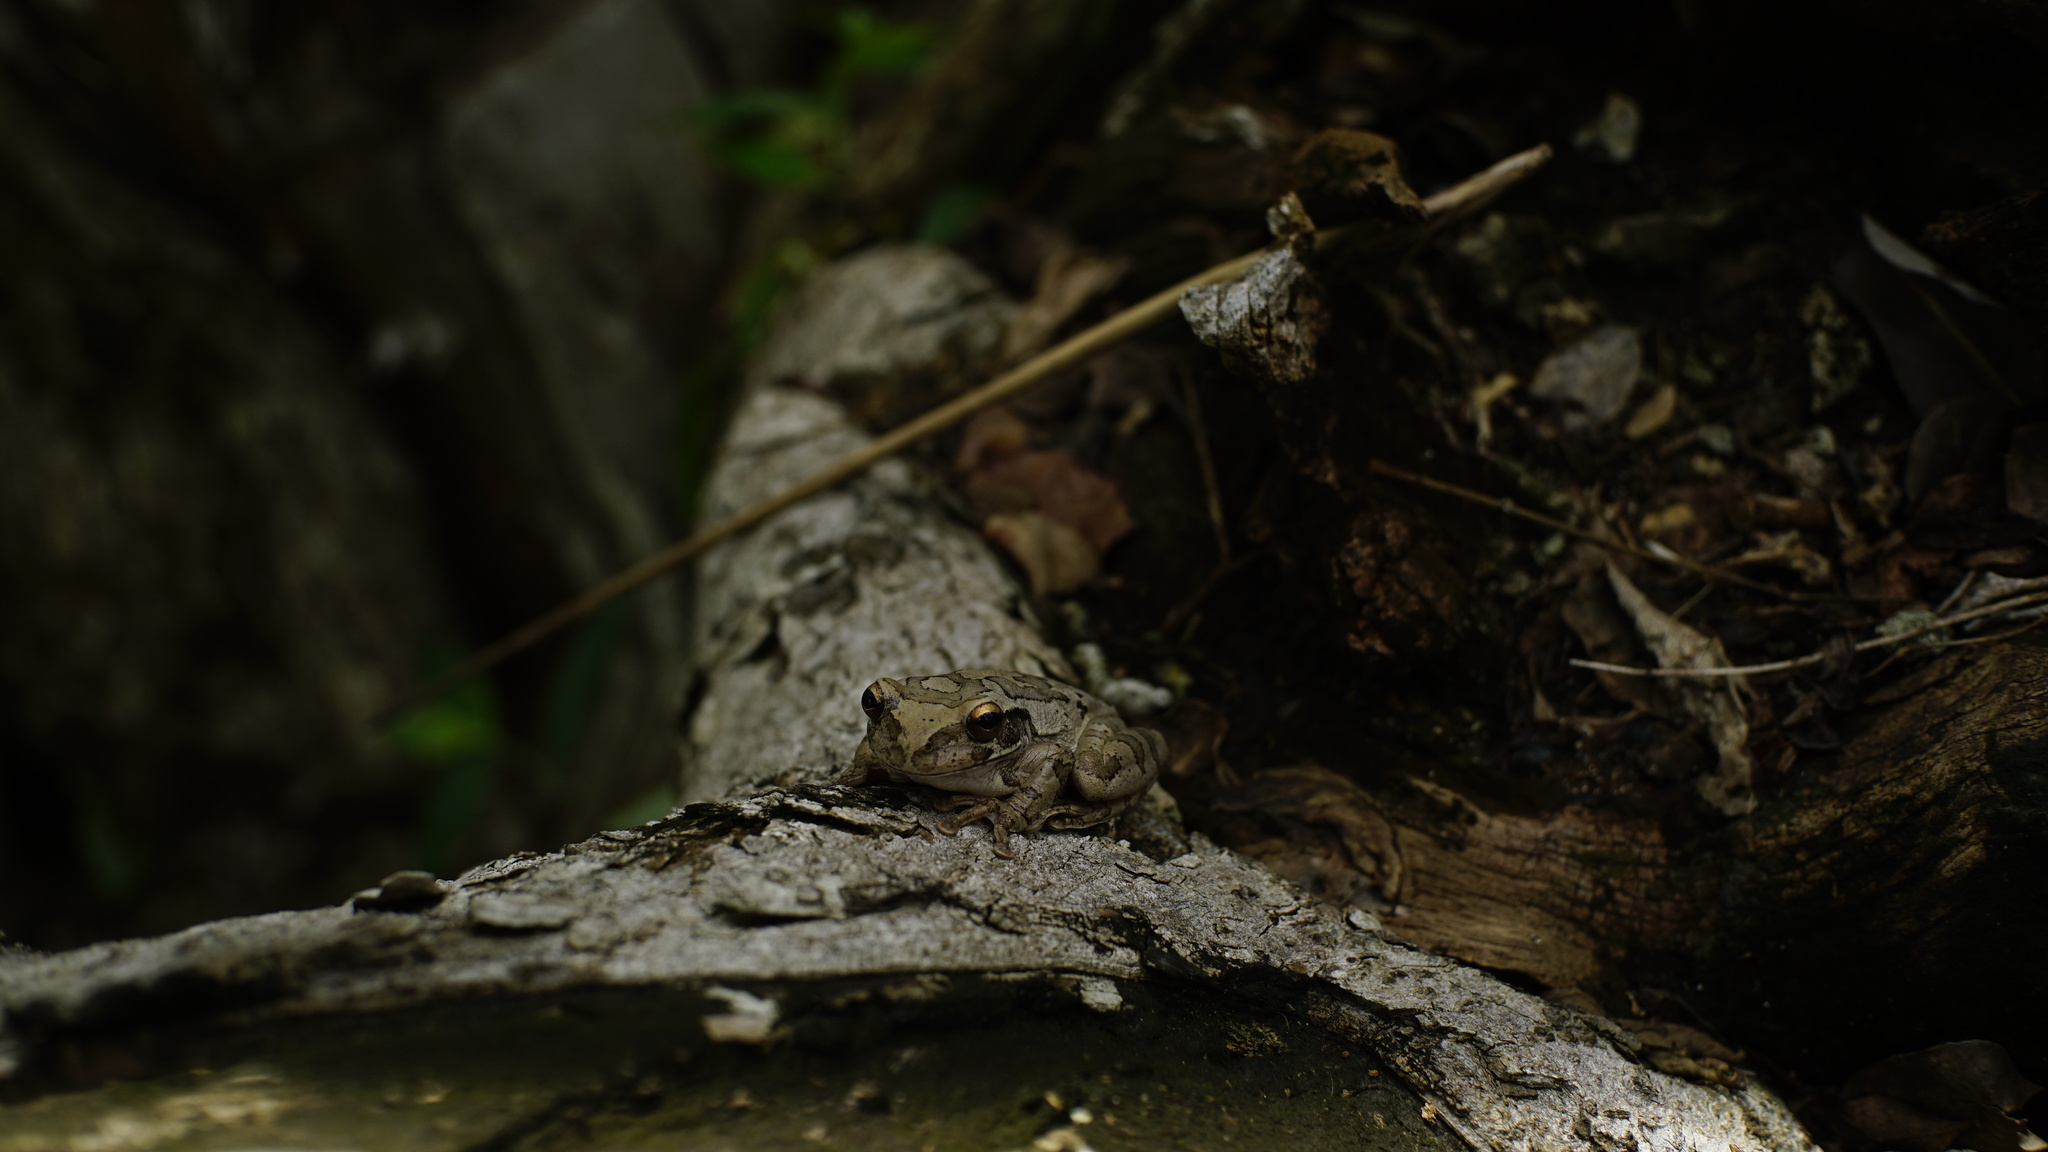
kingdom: Animalia
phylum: Chordata
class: Amphibia
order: Anura
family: Hylidae
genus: Smilisca
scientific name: Smilisca baudinii
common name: Mexican smilisca
